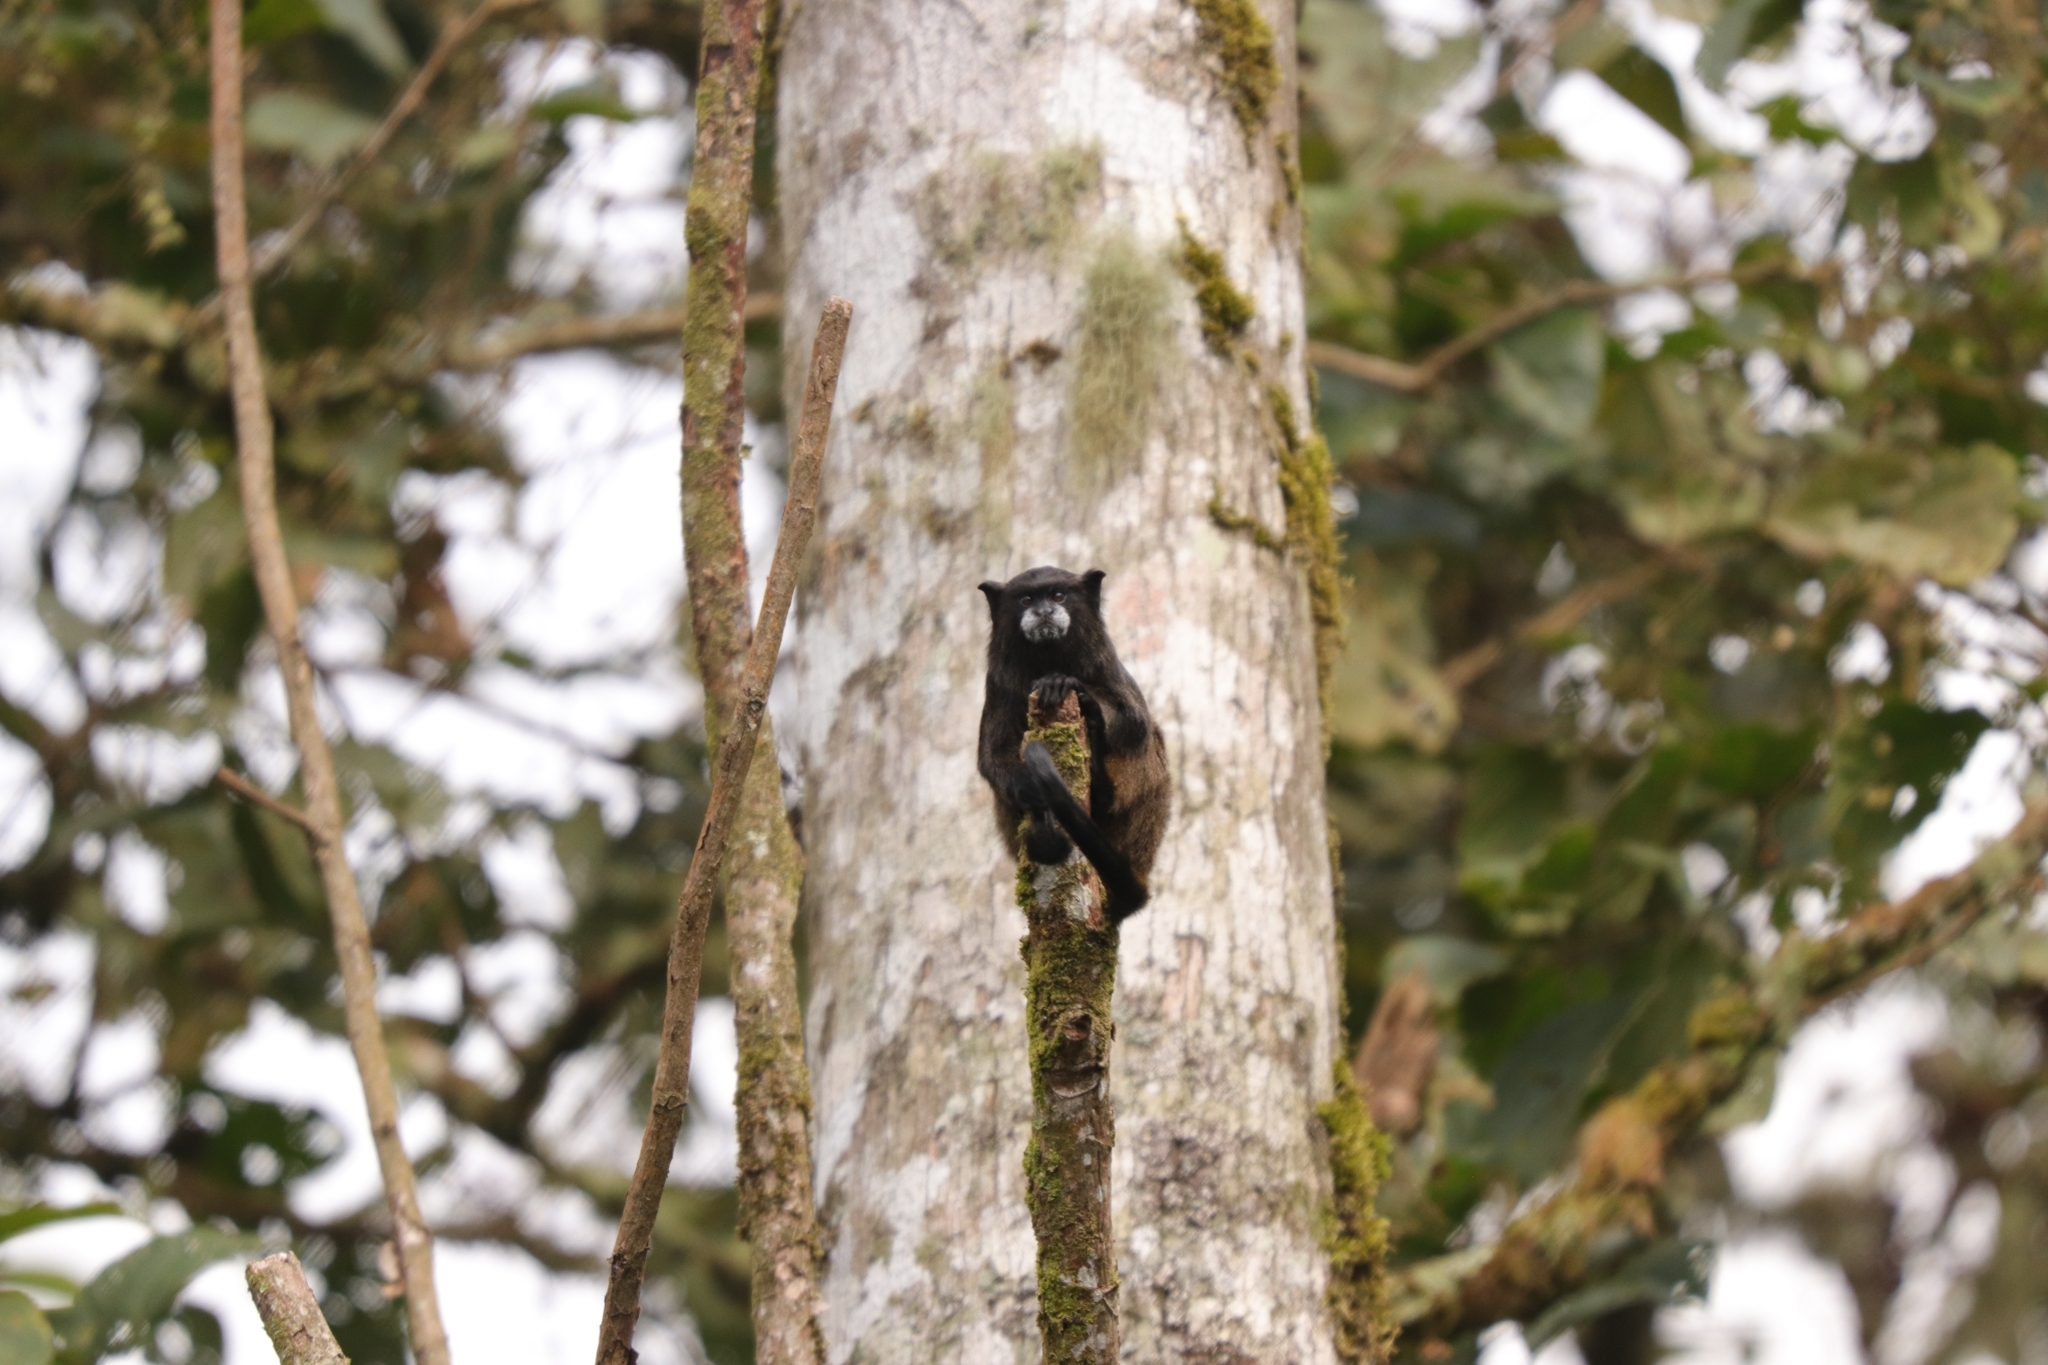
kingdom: Animalia
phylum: Chordata
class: Mammalia
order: Primates
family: Callitrichidae
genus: Leontocebus
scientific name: Leontocebus nigricollis
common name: Black-mantled tamarin
